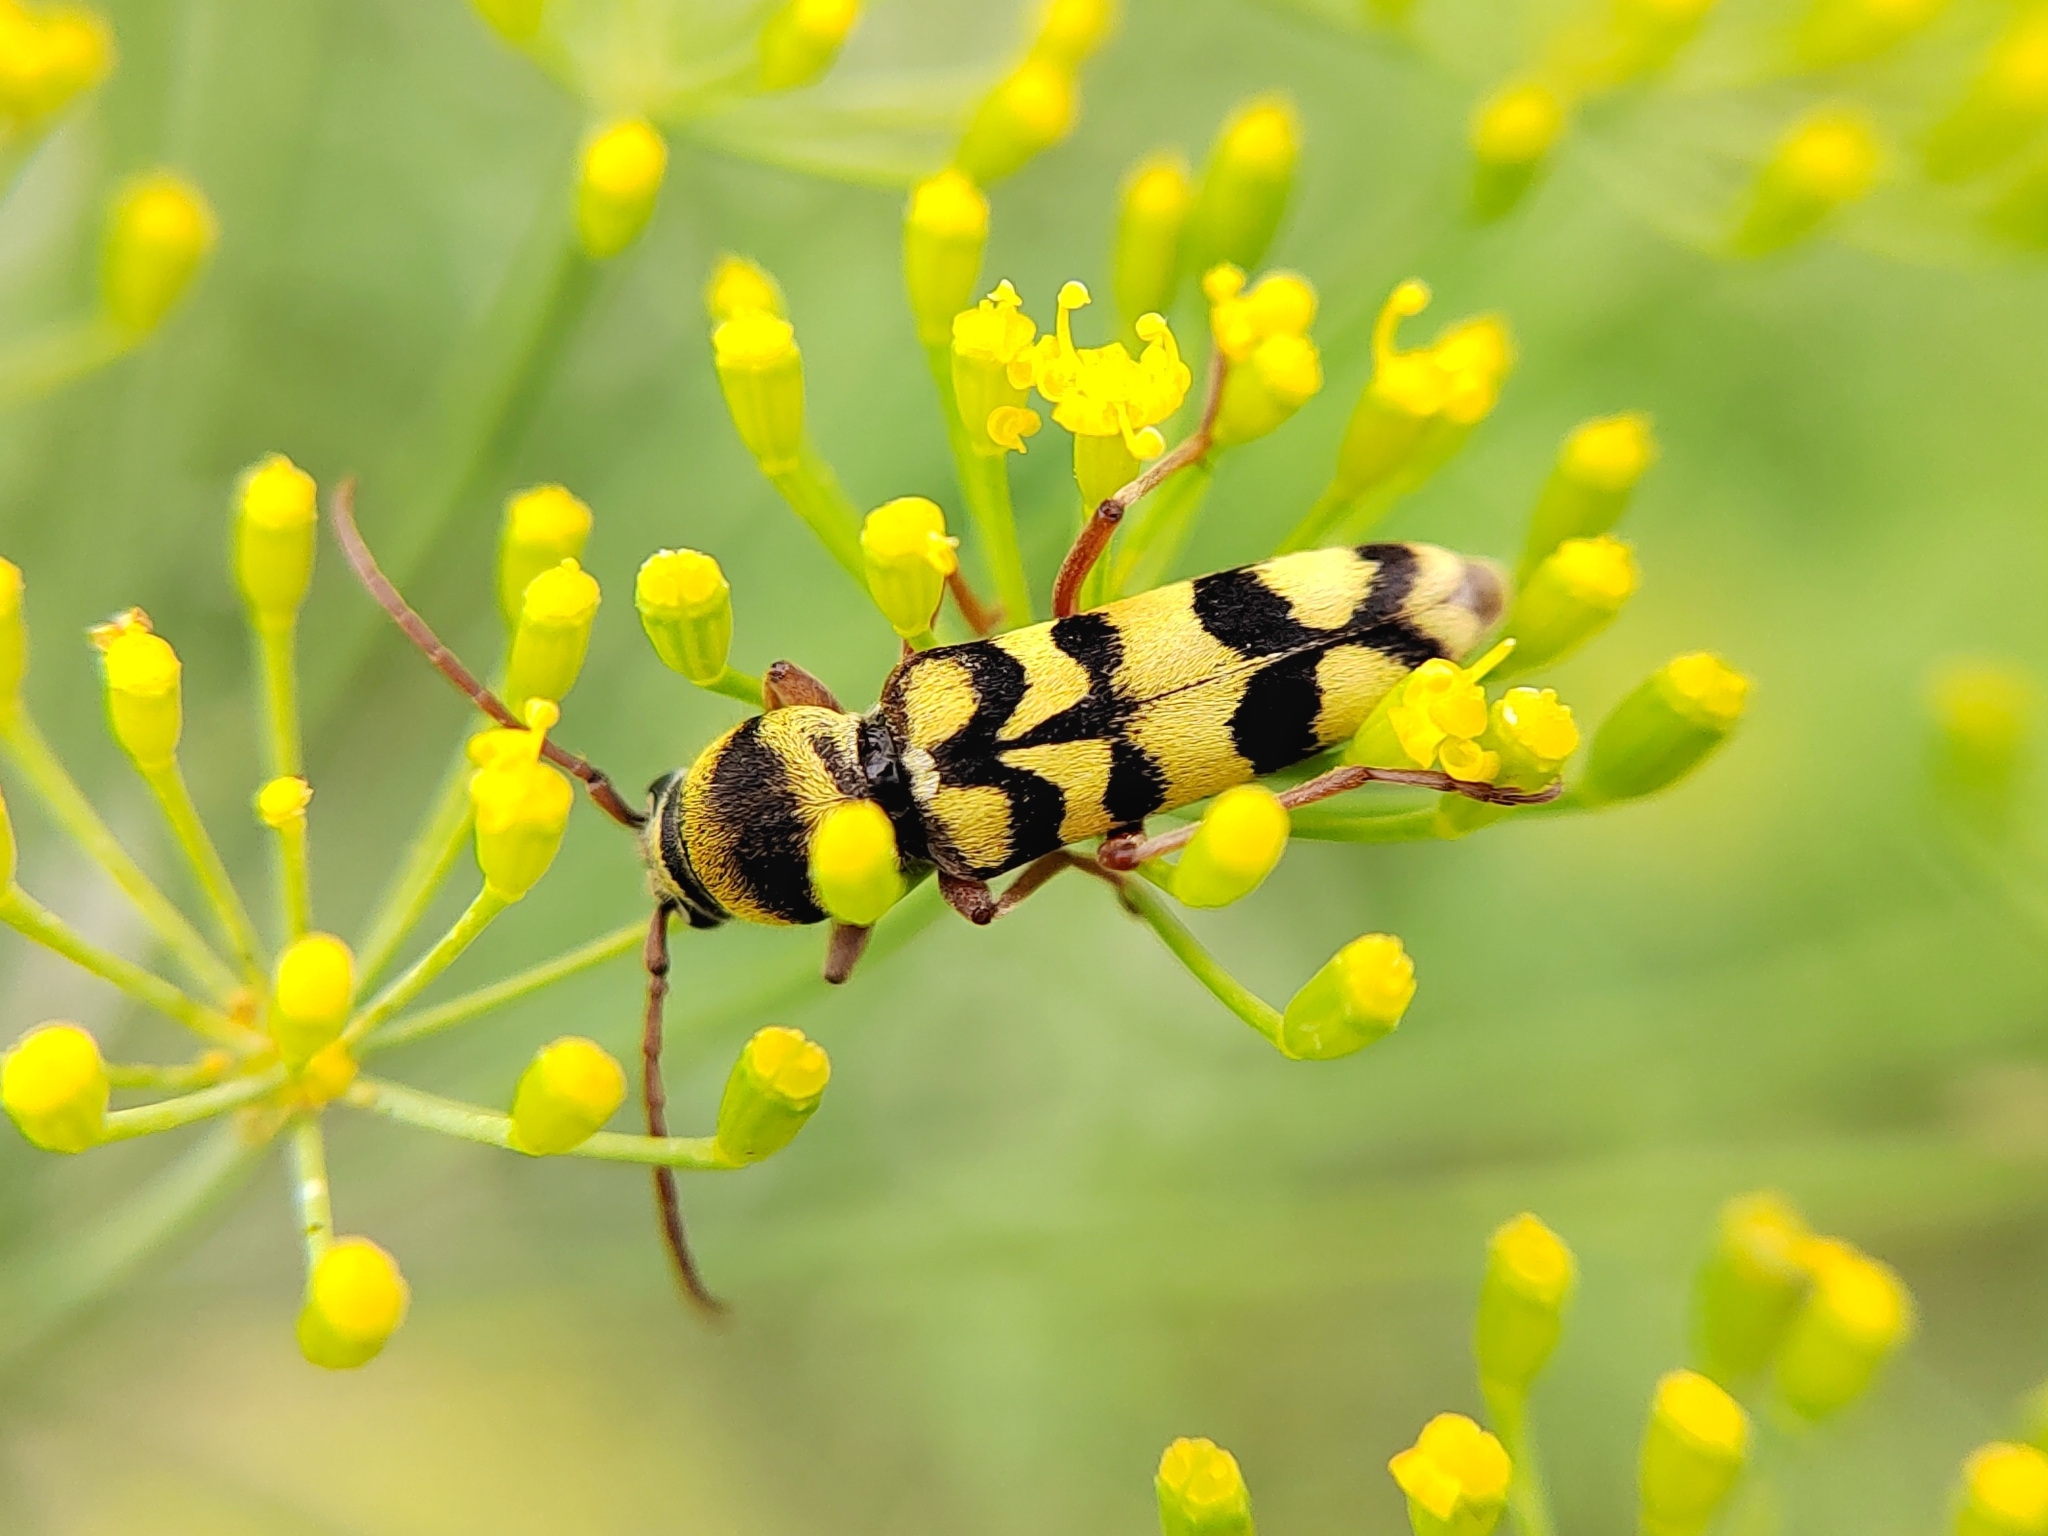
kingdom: Animalia
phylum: Arthropoda
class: Insecta
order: Coleoptera
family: Cerambycidae
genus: Plagionotus
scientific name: Plagionotus floralis
